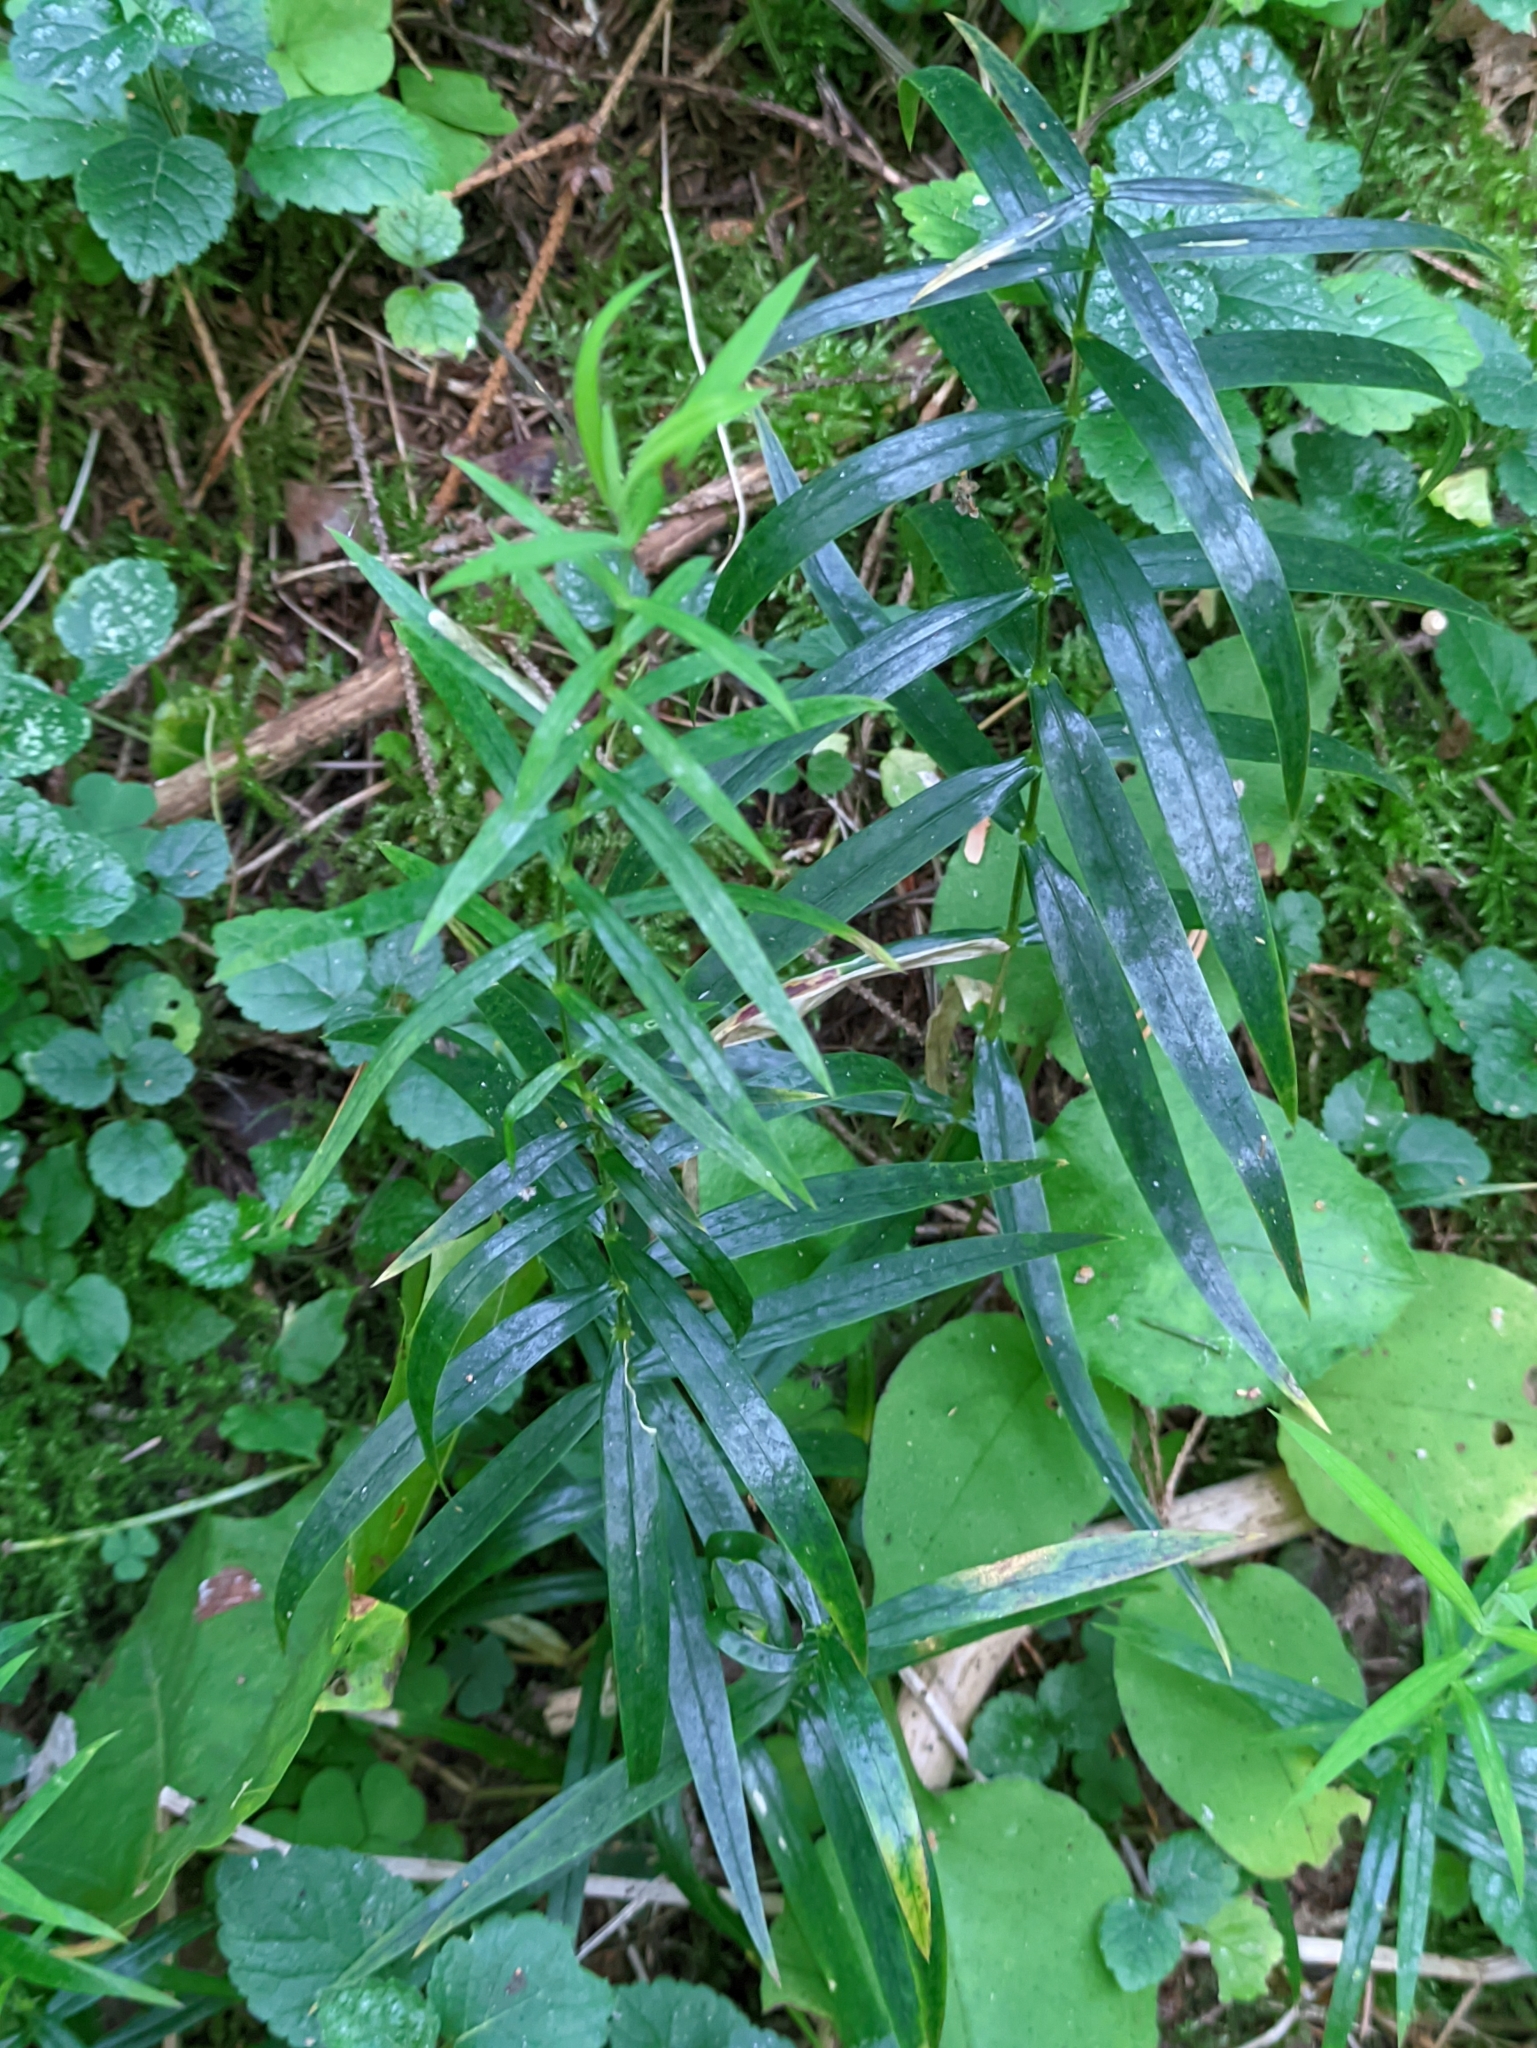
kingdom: Plantae
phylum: Tracheophyta
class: Magnoliopsida
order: Caryophyllales
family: Caryophyllaceae
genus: Rabelera
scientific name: Rabelera holostea
